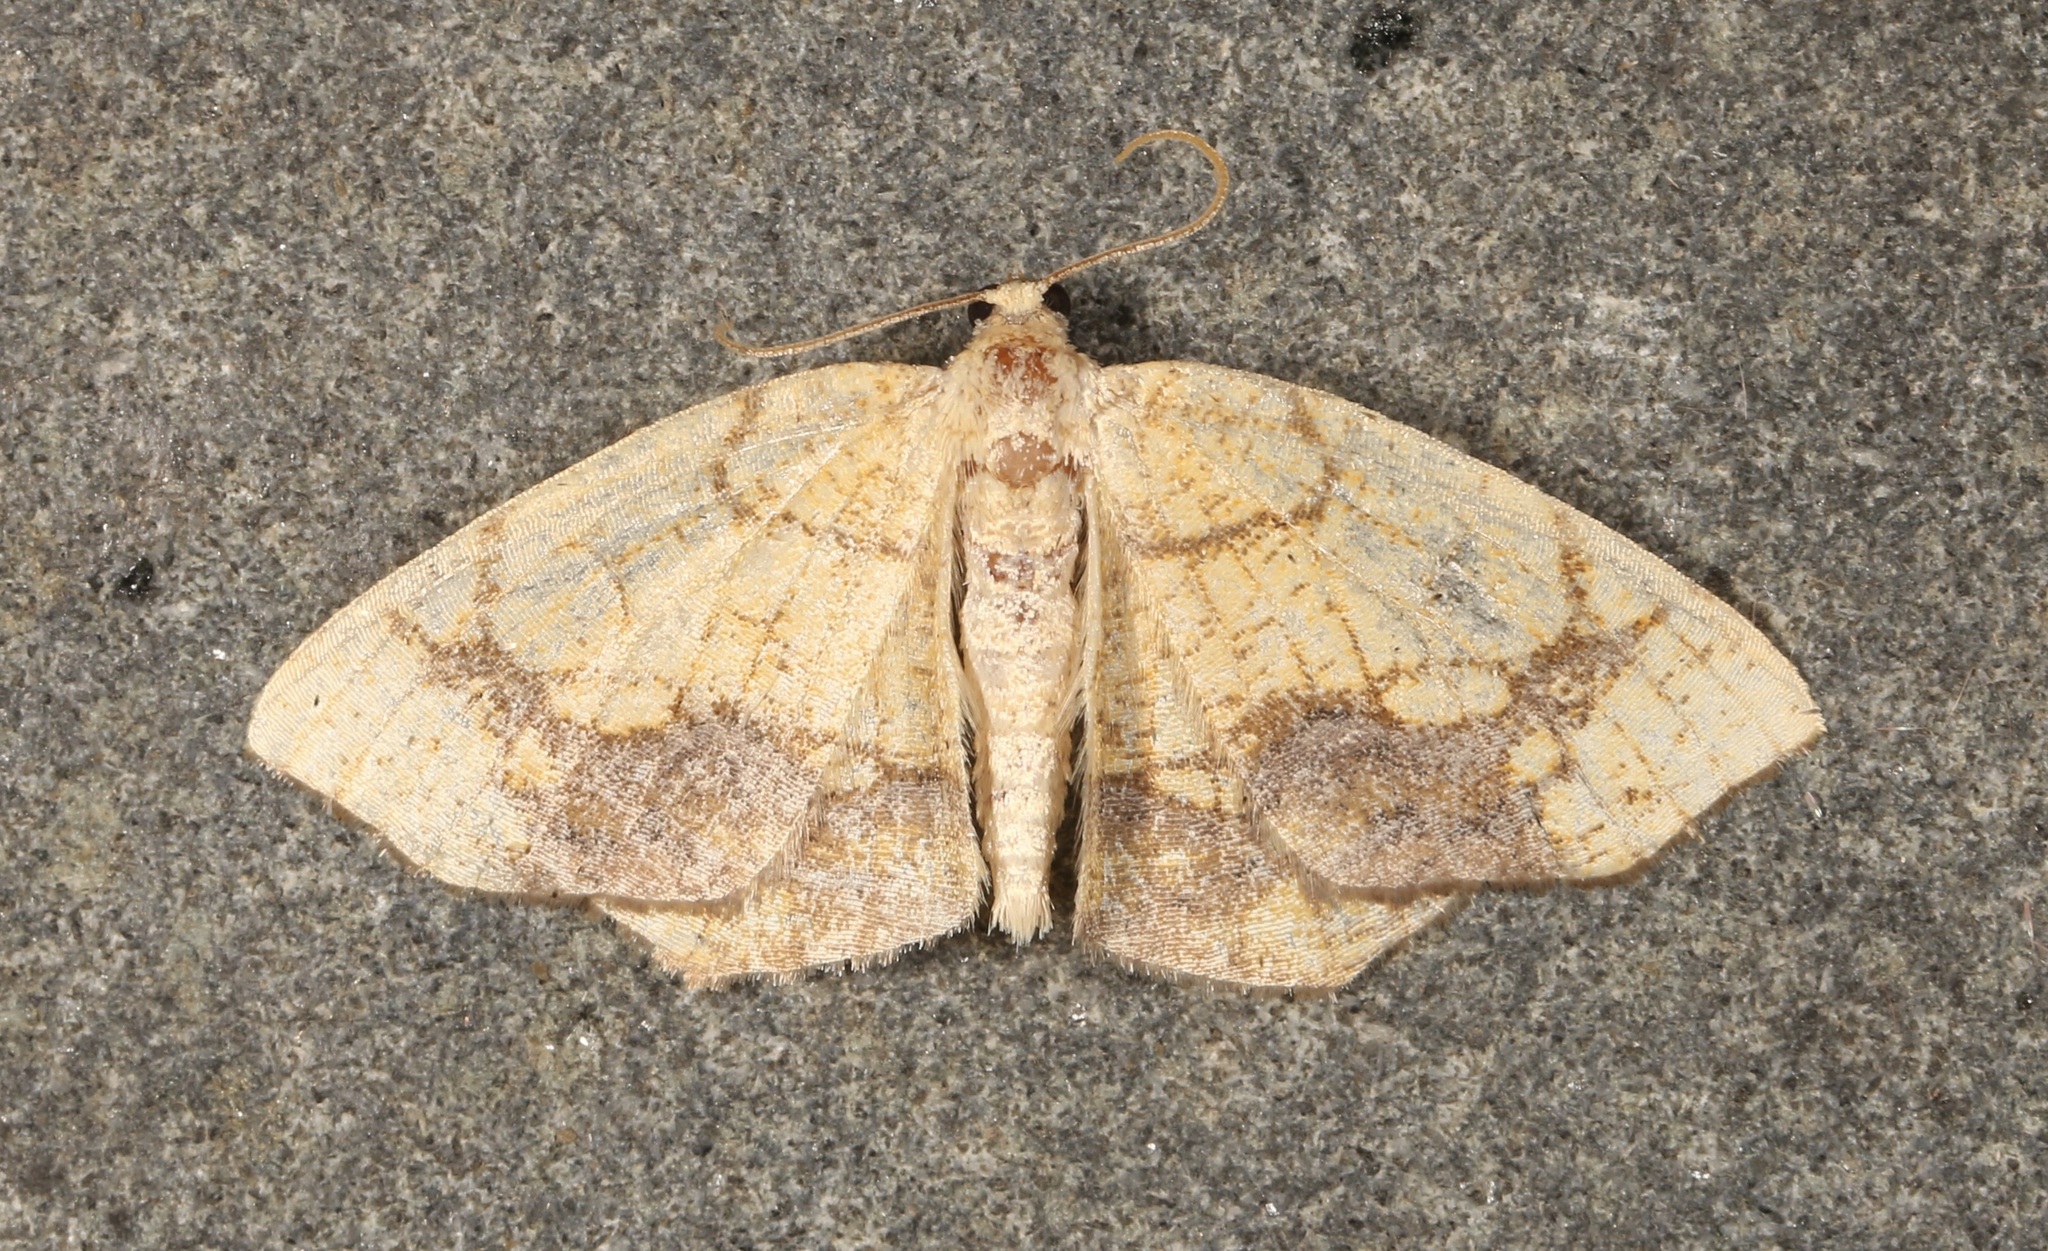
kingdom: Animalia
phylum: Arthropoda
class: Insecta
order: Lepidoptera
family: Geometridae
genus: Nematocampa
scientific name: Nematocampa resistaria
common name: Horned spanworm moth
